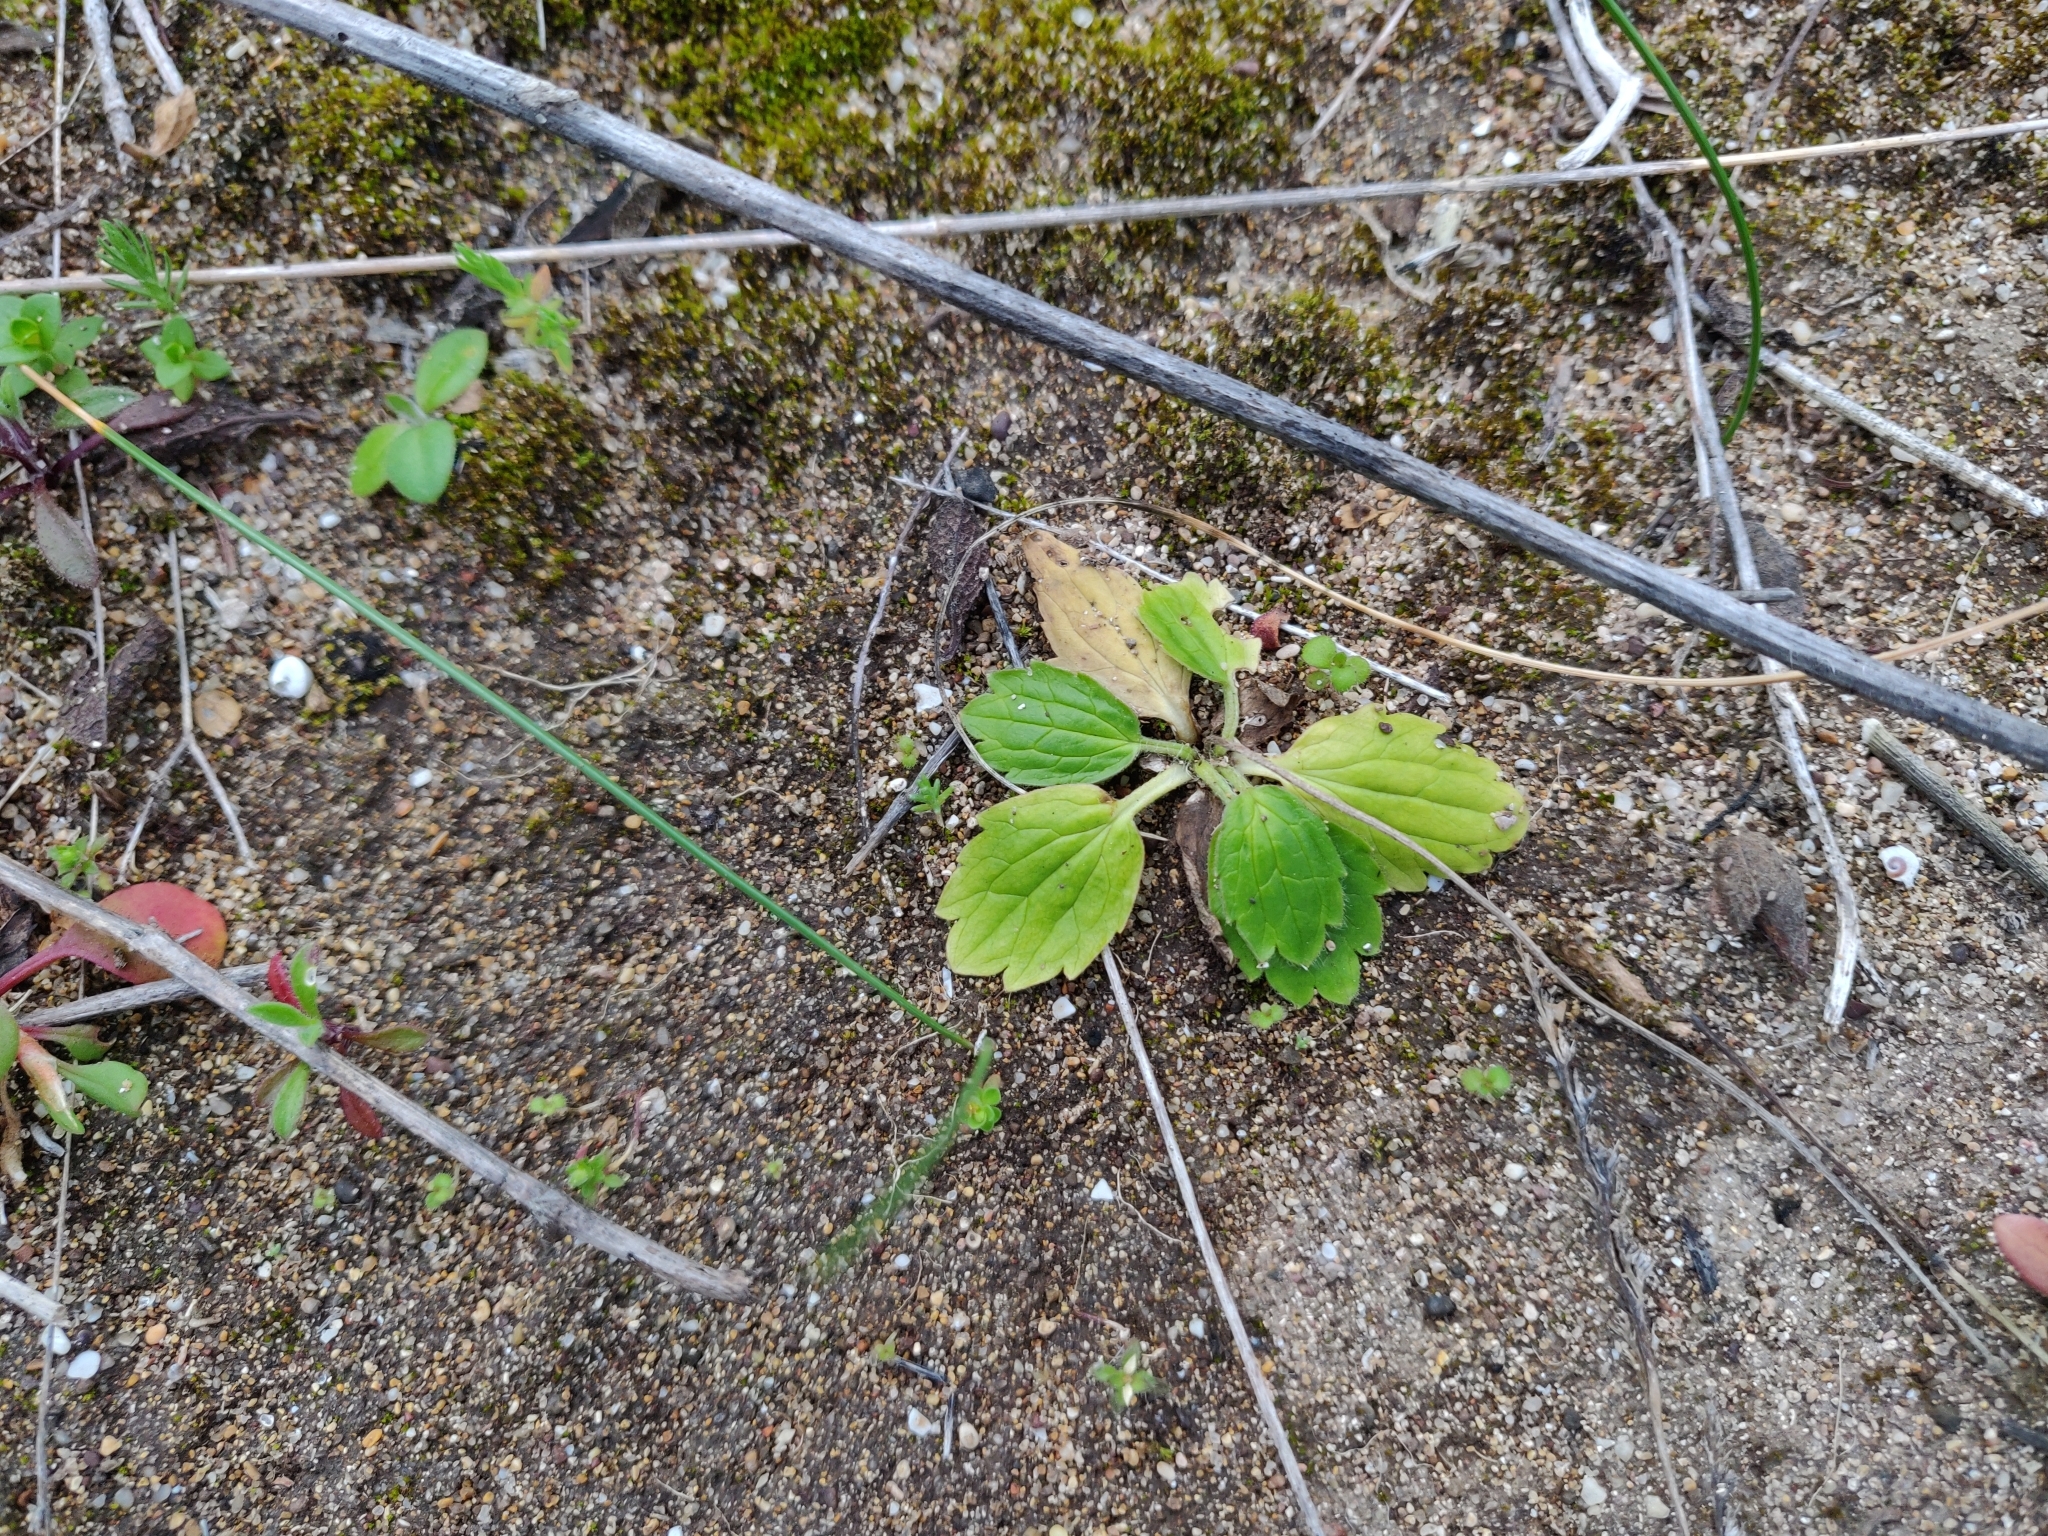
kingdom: Plantae
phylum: Tracheophyta
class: Magnoliopsida
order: Ranunculales
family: Ranunculaceae
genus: Ranunculus
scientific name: Ranunculus bullatus
